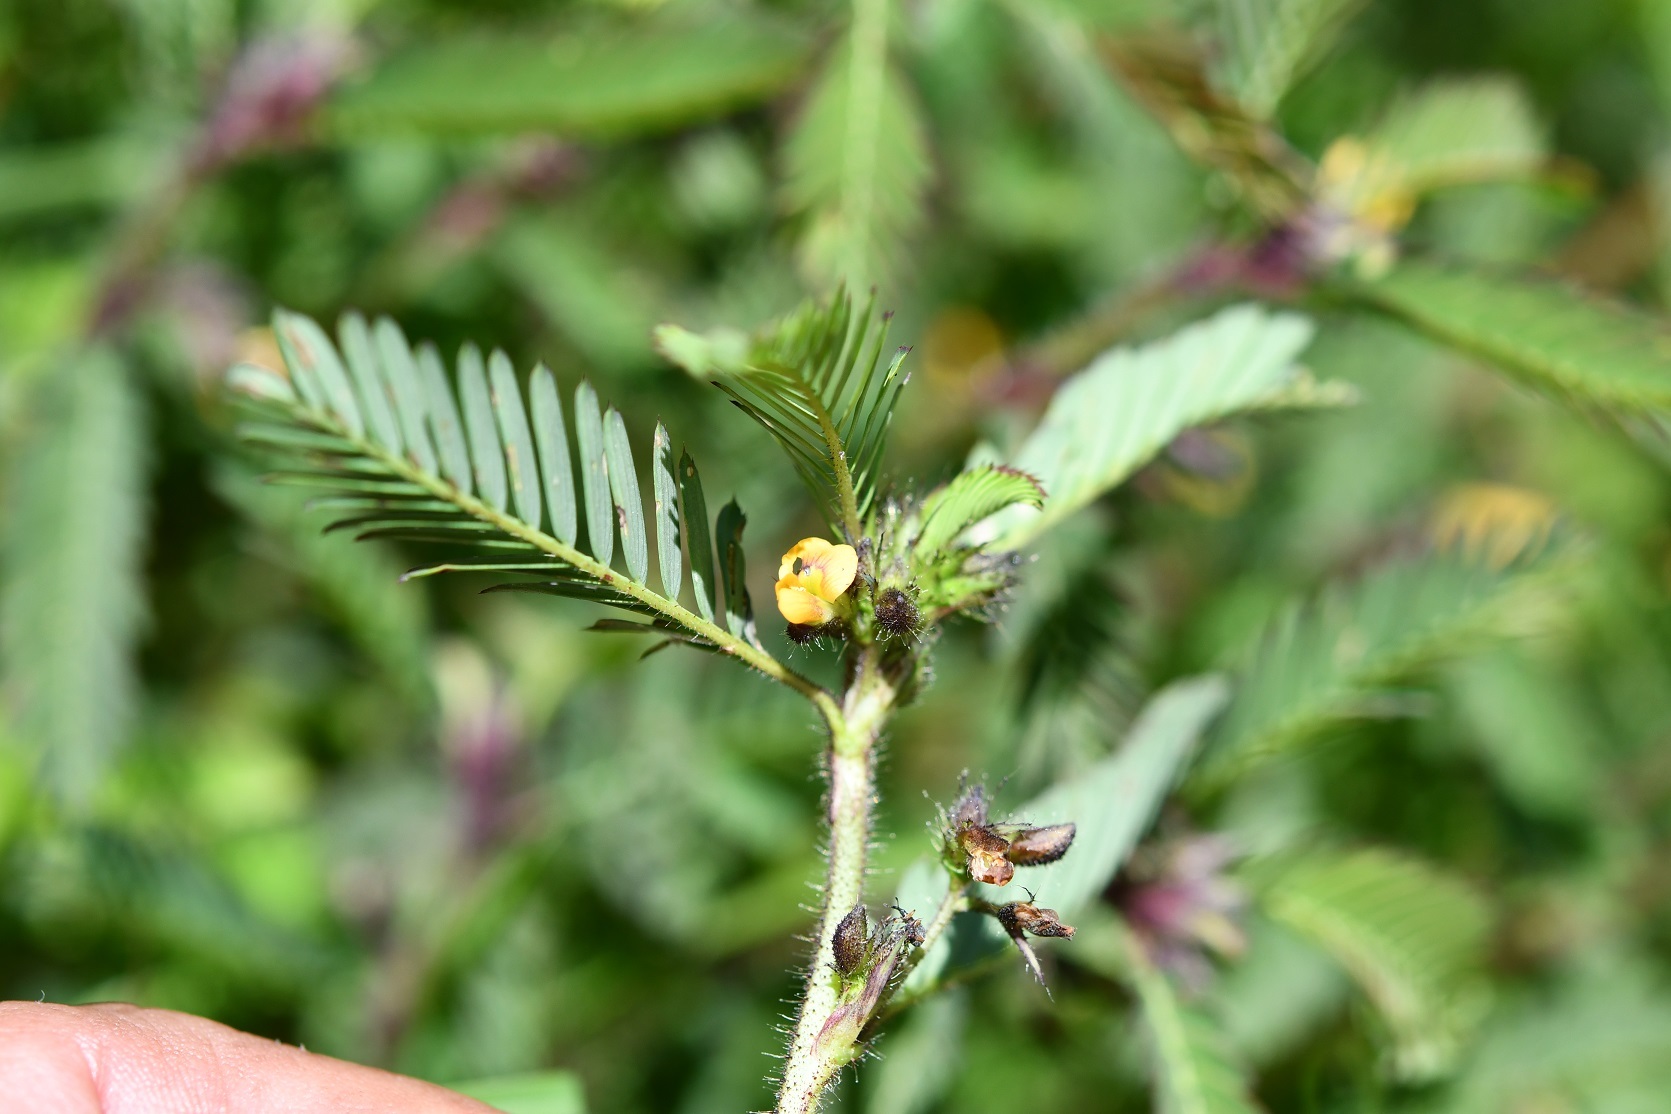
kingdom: Plantae
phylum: Tracheophyta
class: Magnoliopsida
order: Fabales
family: Fabaceae
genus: Aeschynomene
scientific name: Aeschynomene villosa
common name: Hairy-jointvetch
